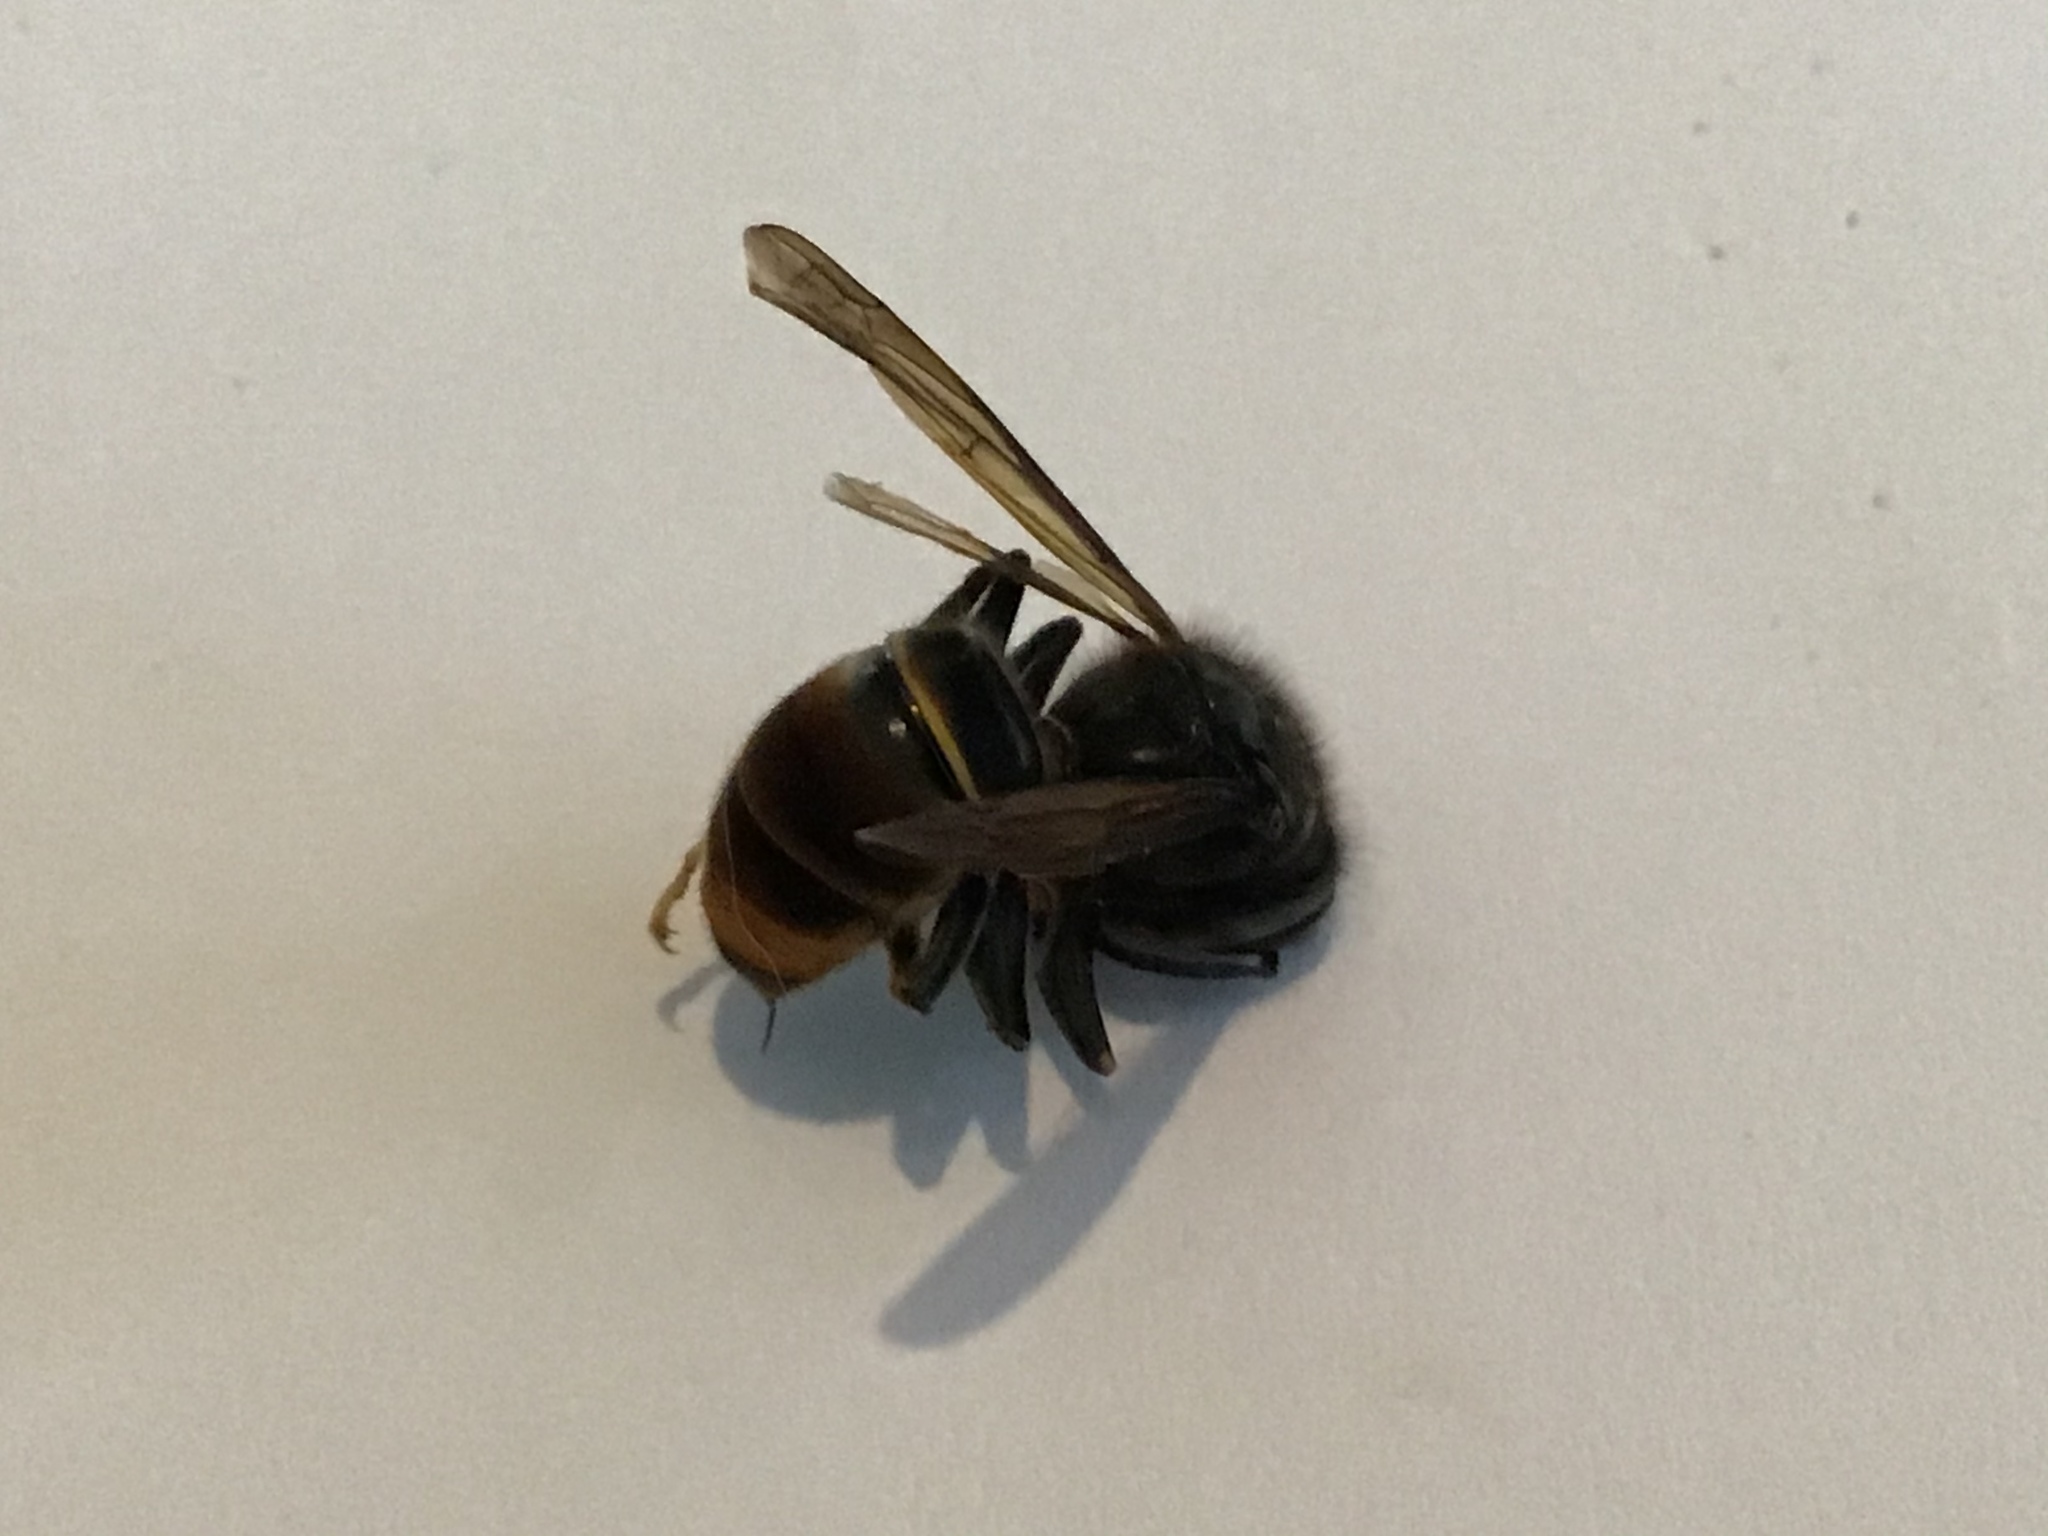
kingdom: Animalia
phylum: Arthropoda
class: Insecta
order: Hymenoptera
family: Vespidae
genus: Vespa
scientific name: Vespa velutina
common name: Asian hornet
